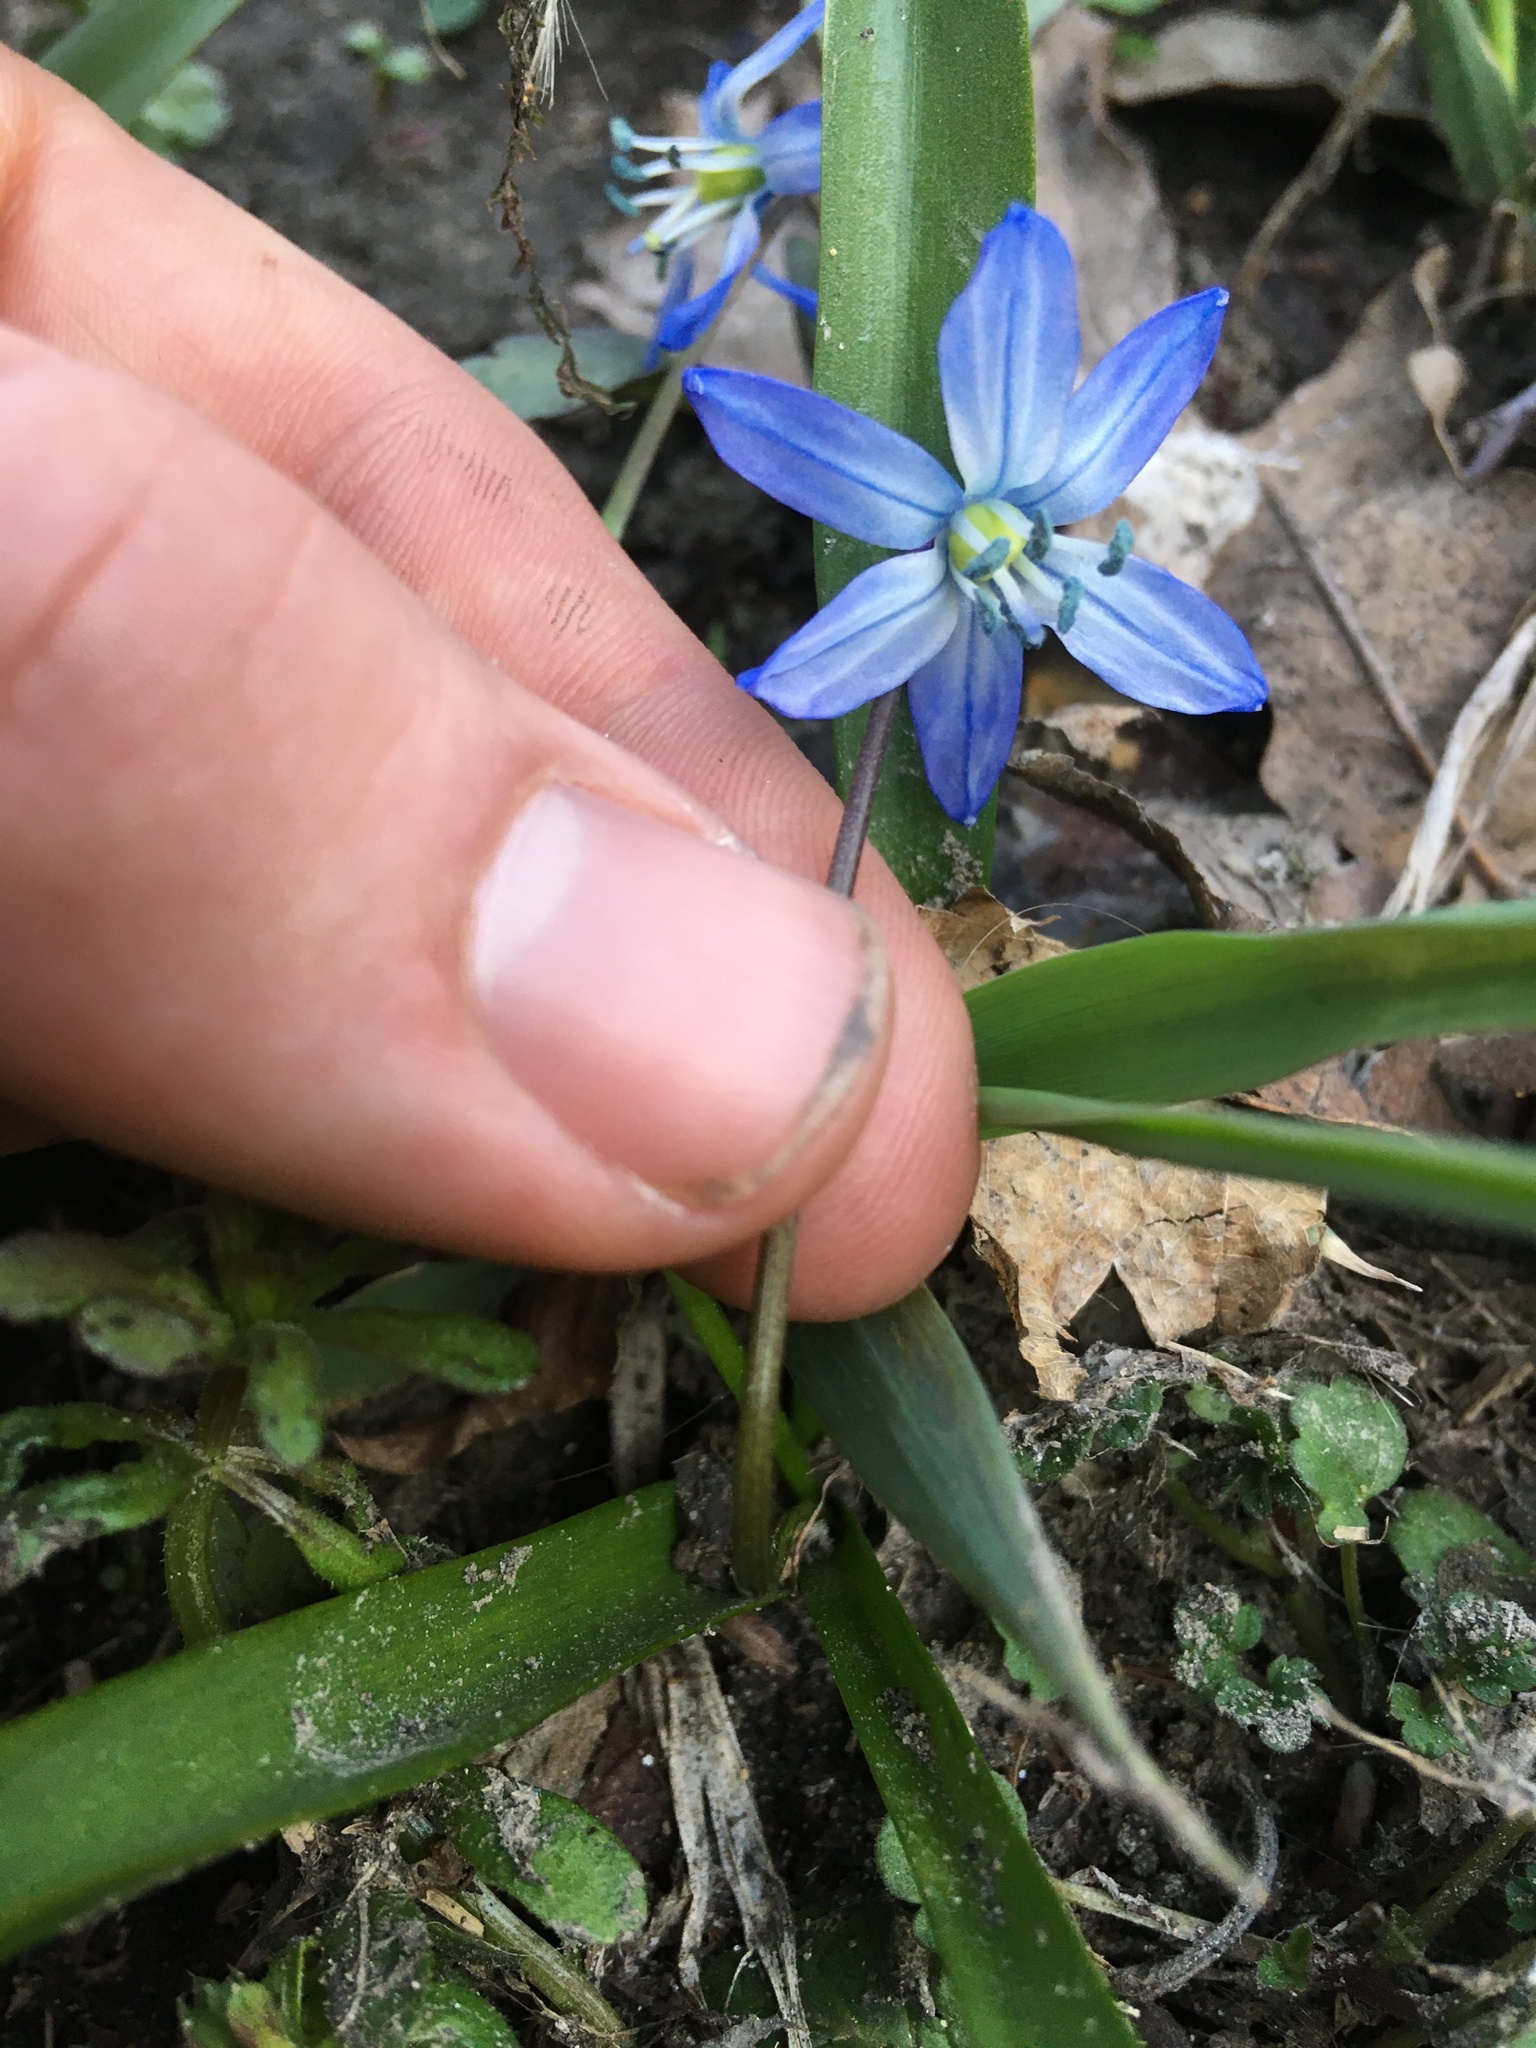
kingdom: Plantae
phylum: Tracheophyta
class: Liliopsida
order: Asparagales
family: Asparagaceae
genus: Scilla
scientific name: Scilla siberica
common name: Siberian squill
